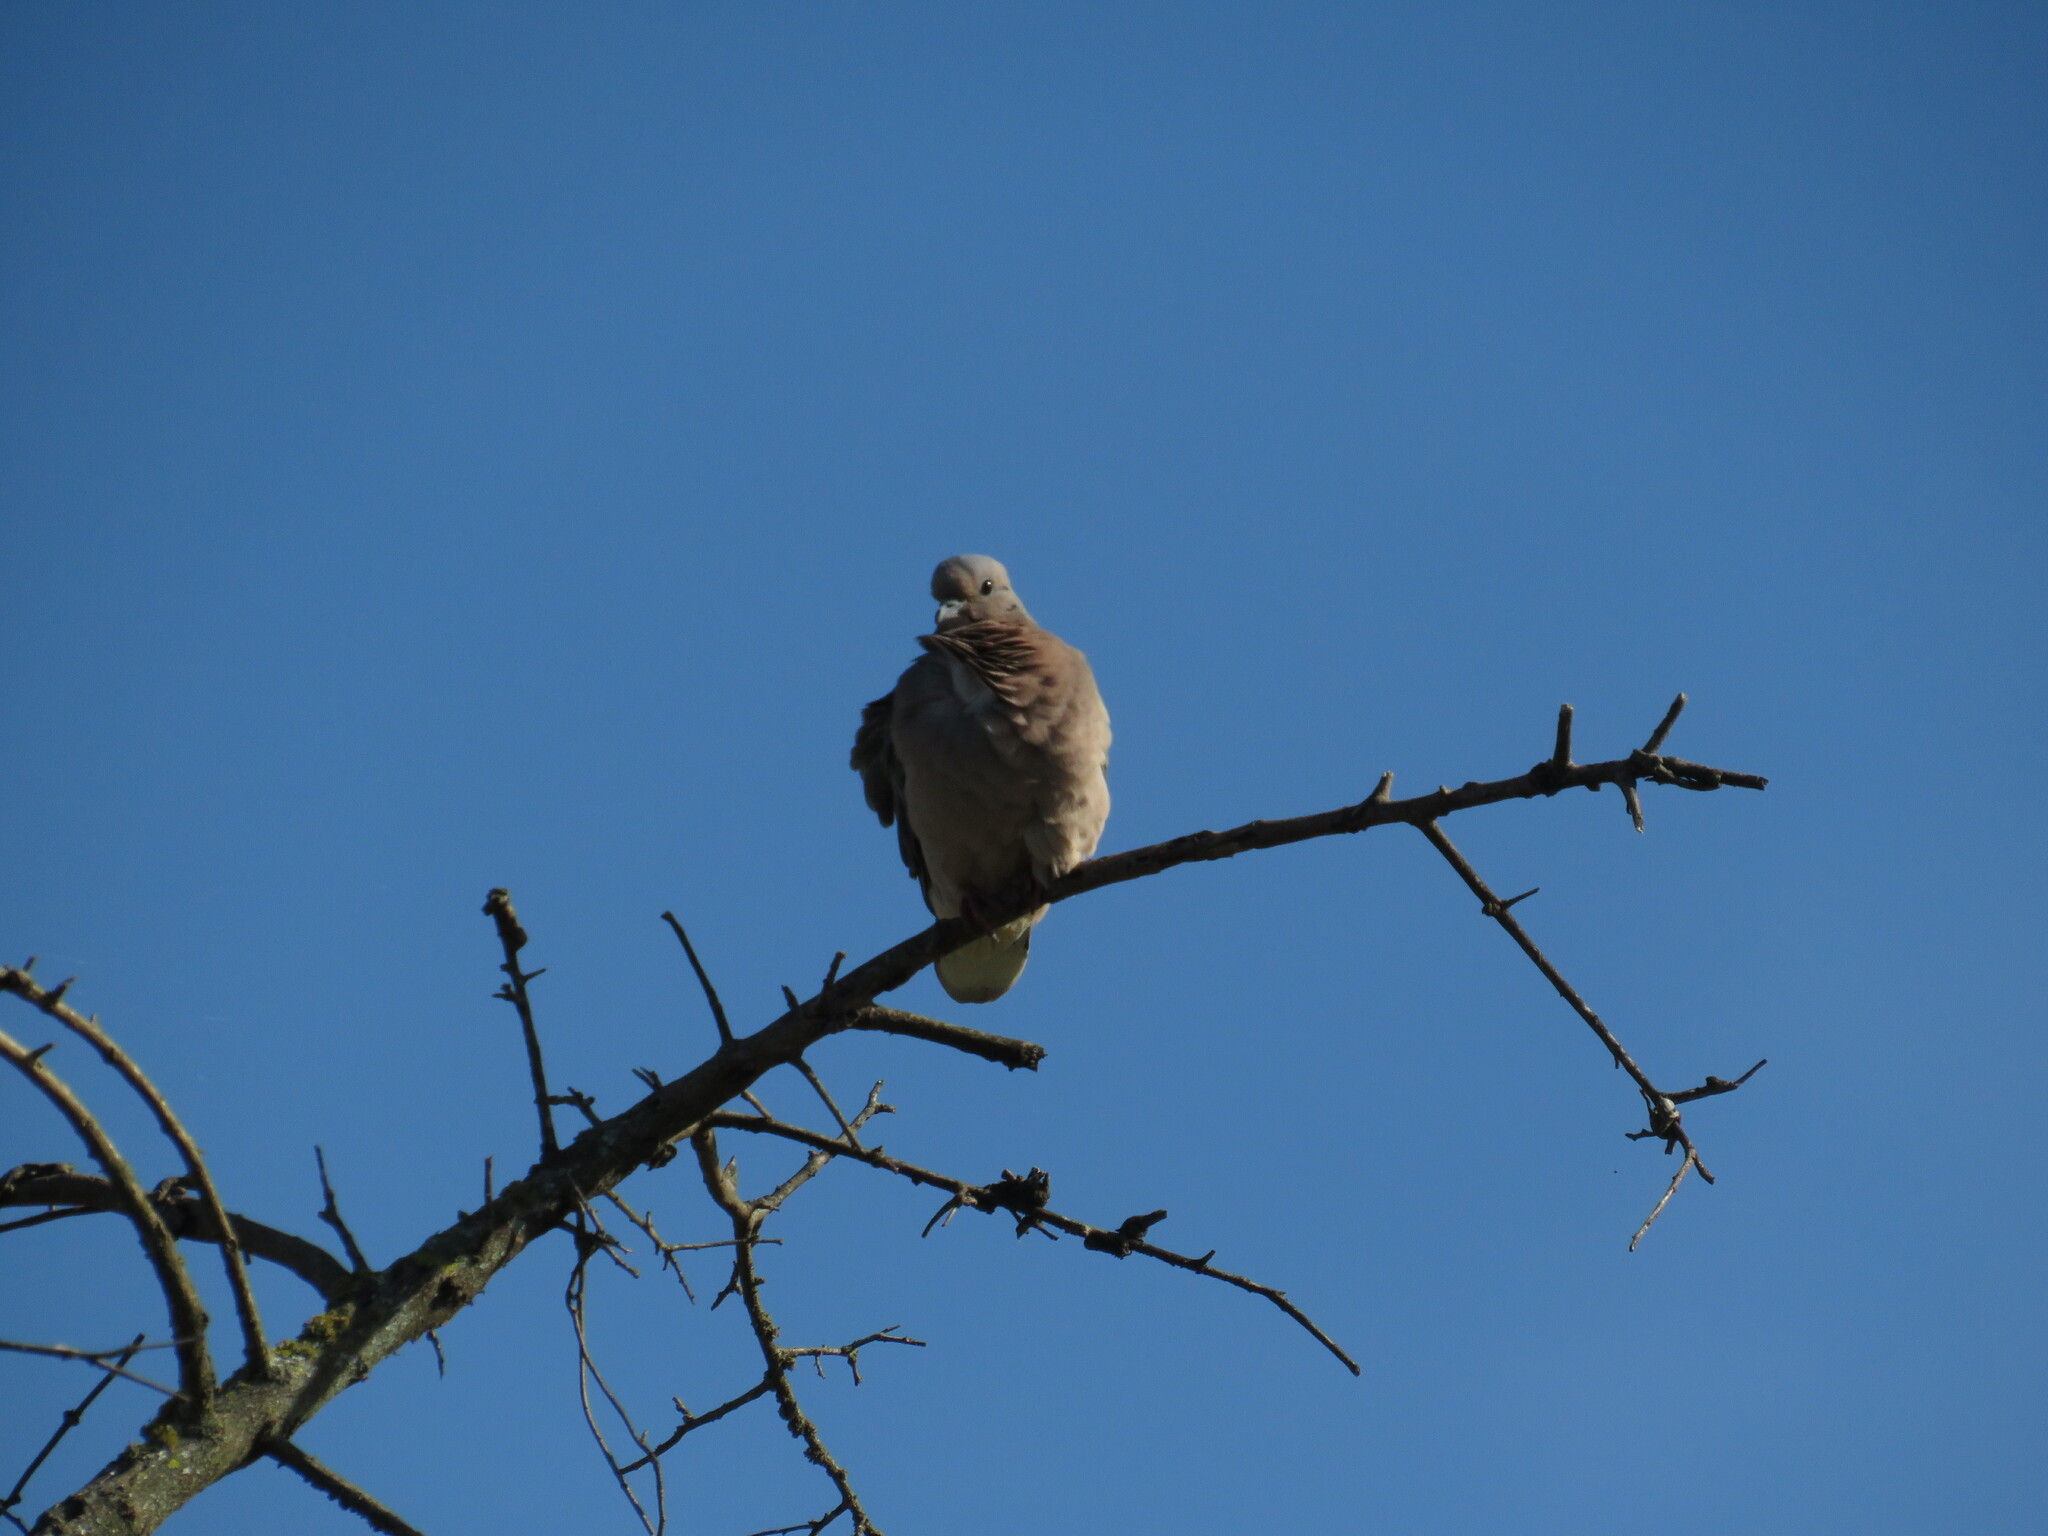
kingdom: Animalia
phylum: Chordata
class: Aves
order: Columbiformes
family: Columbidae
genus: Zenaida
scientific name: Zenaida auriculata
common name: Eared dove
